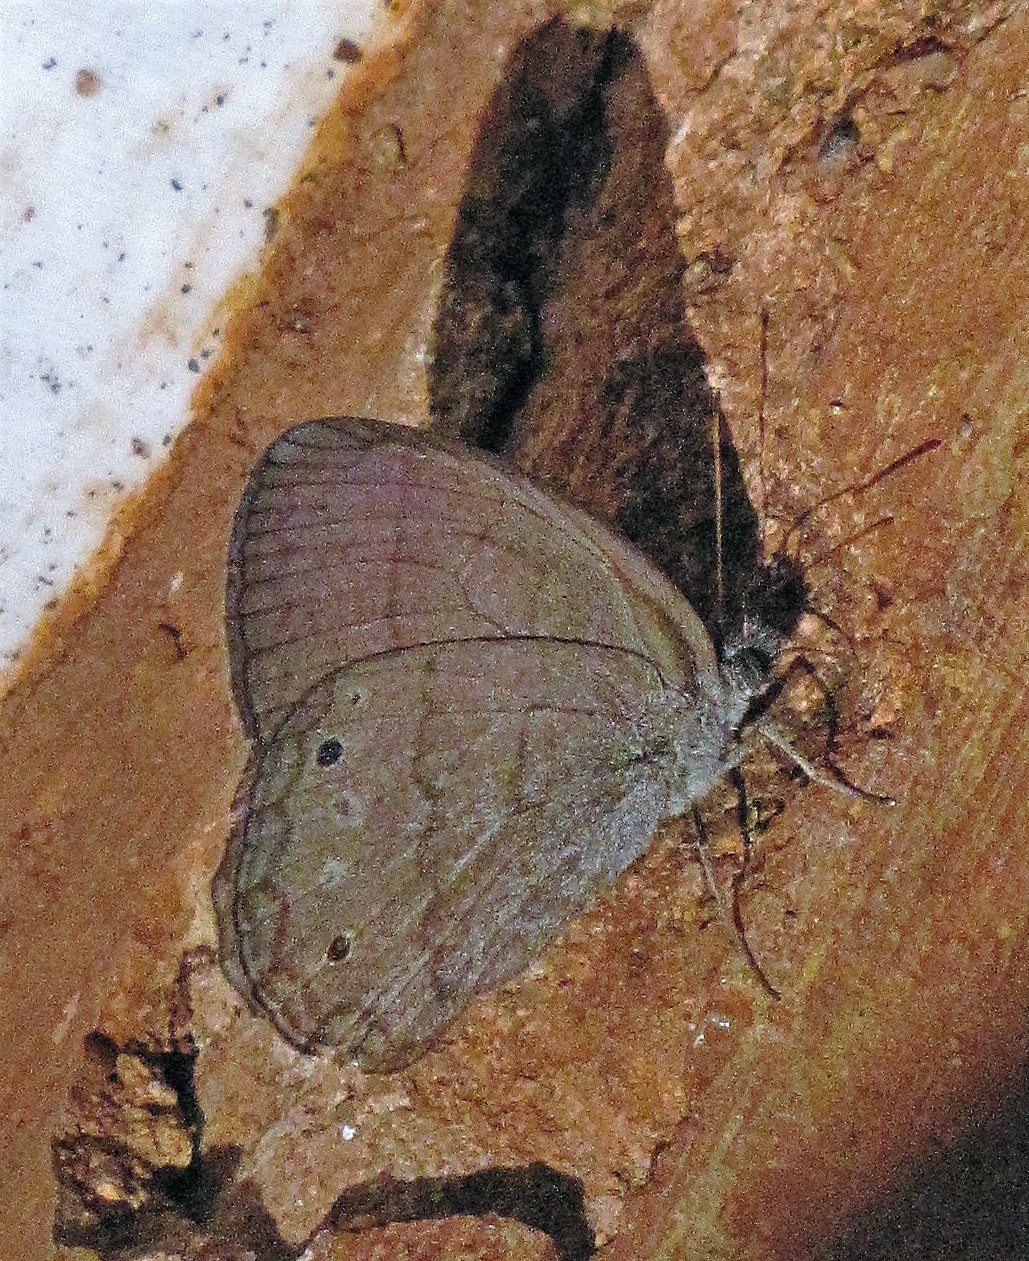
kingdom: Animalia
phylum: Arthropoda
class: Insecta
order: Lepidoptera
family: Nymphalidae
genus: Malaveria
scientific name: Malaveria
